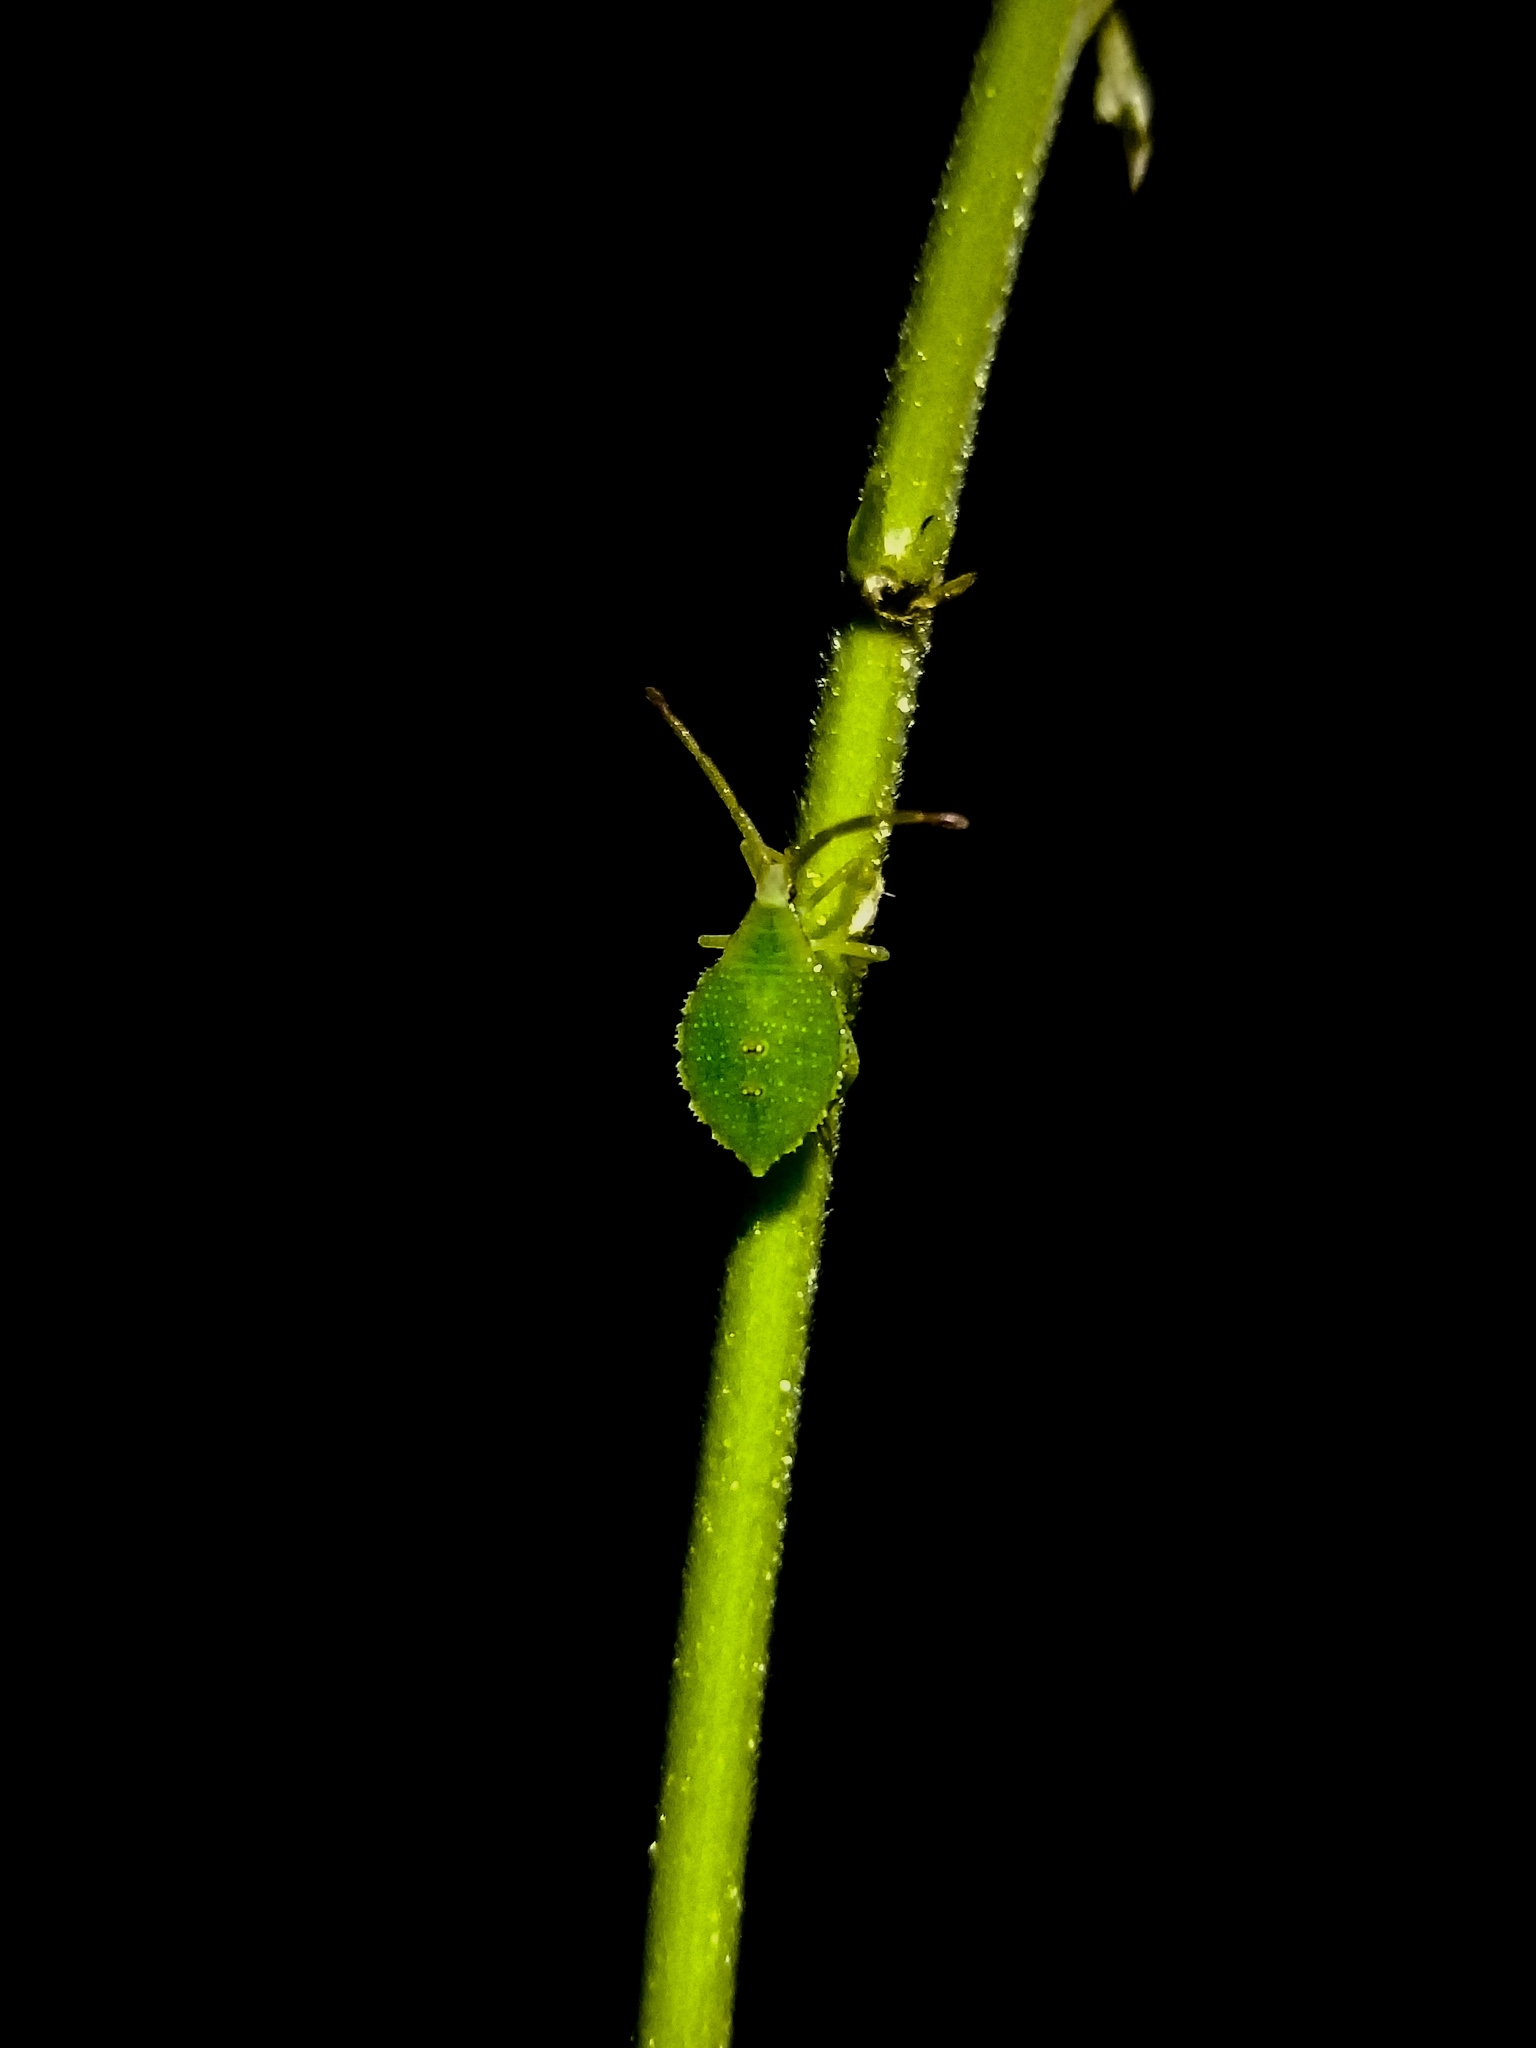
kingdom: Animalia
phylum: Arthropoda
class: Insecta
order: Hemiptera
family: Coreidae
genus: Piezogaster
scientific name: Piezogaster calcarator
